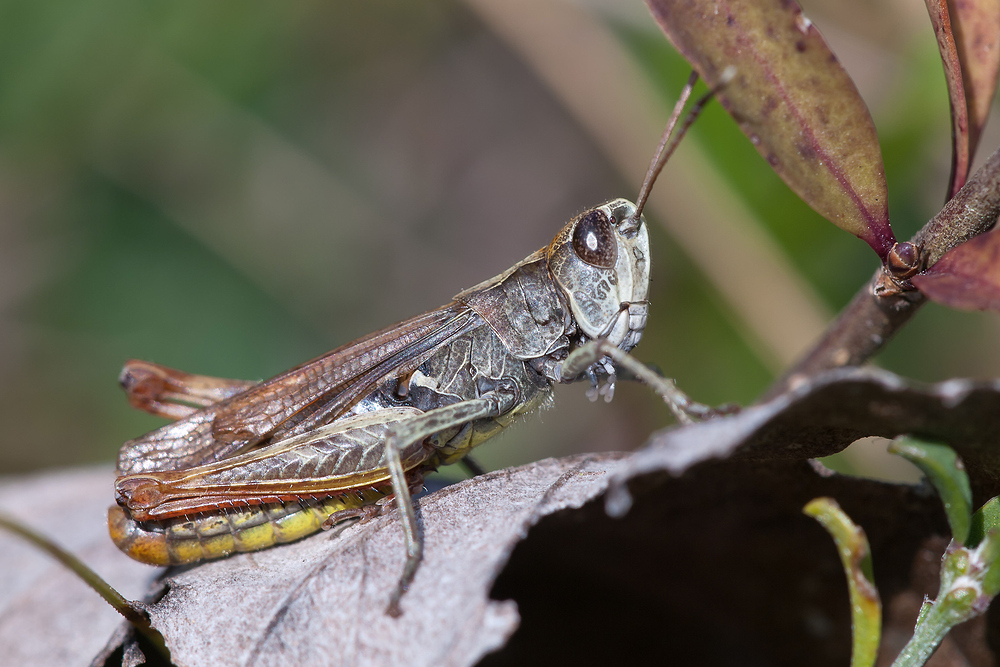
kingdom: Animalia
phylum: Arthropoda
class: Insecta
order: Orthoptera
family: Acrididae
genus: Gomphocerippus
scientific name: Gomphocerippus rufus
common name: Rufous grasshopper
